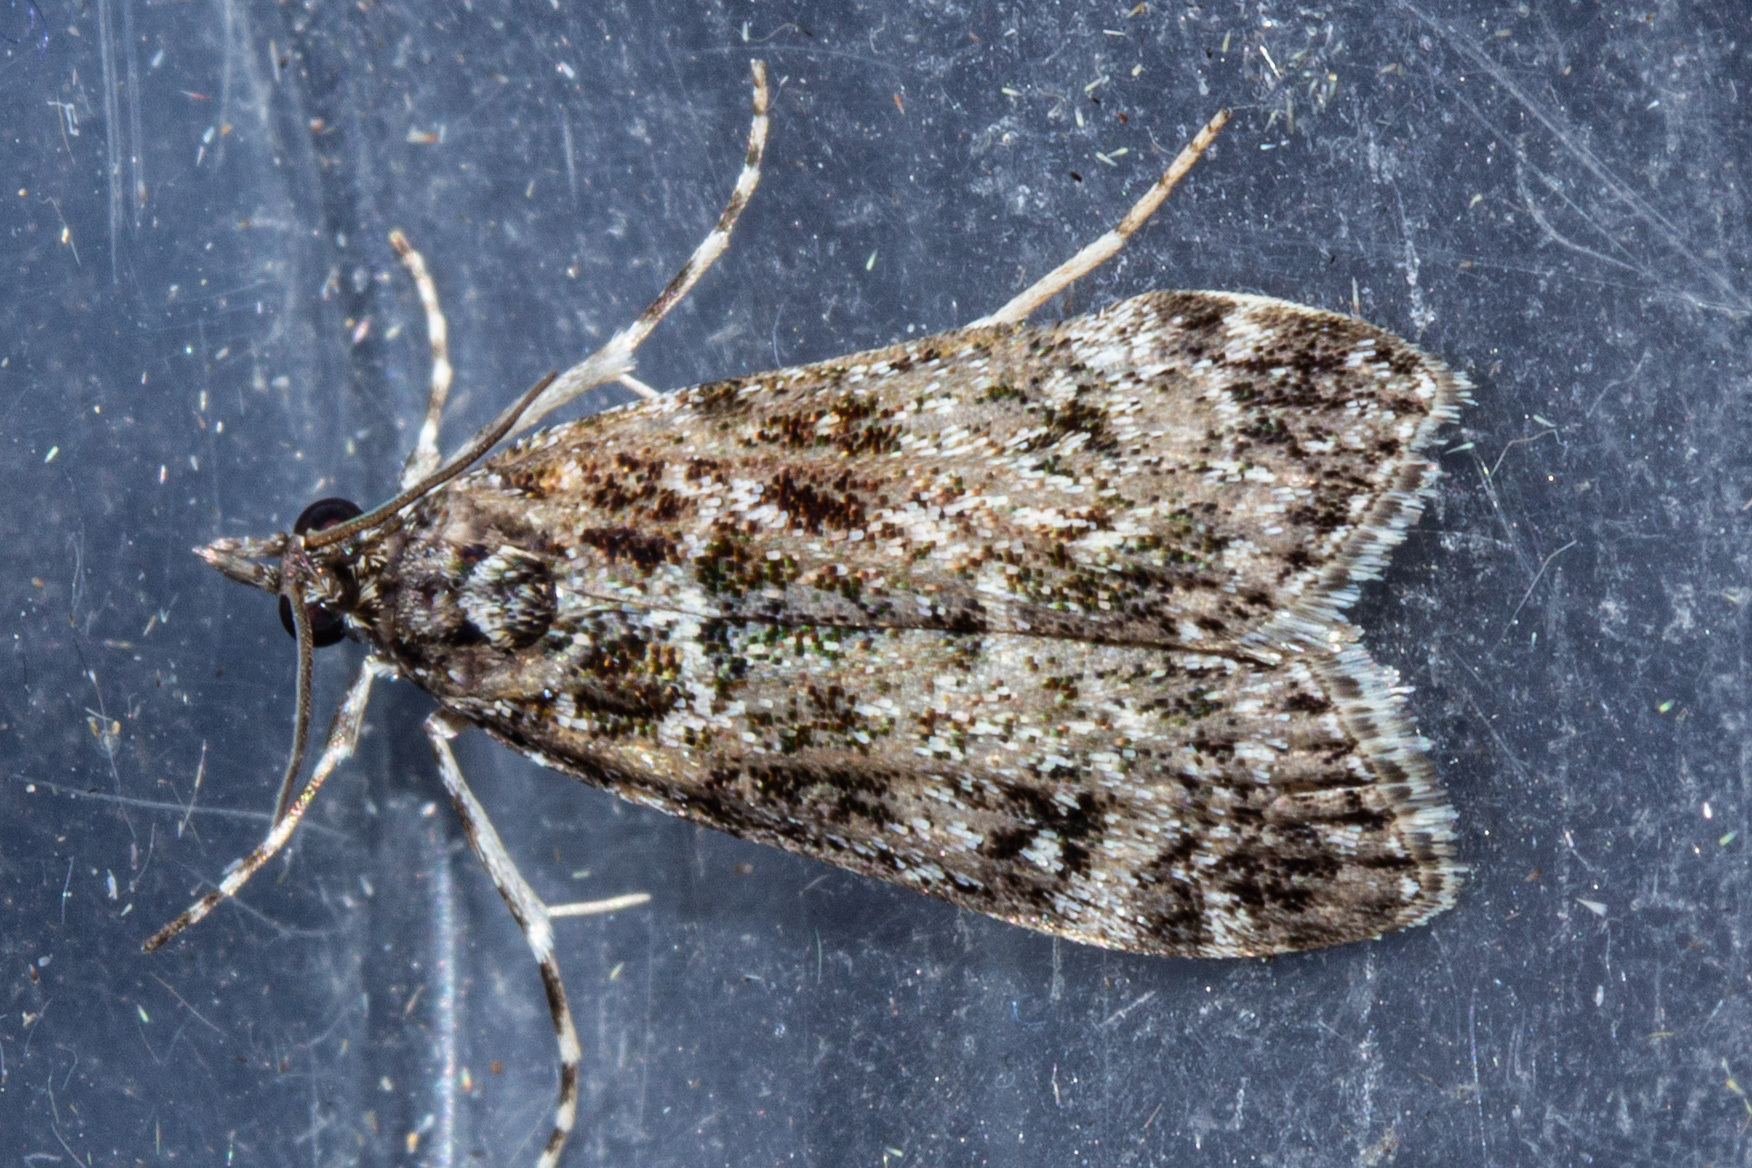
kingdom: Animalia
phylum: Arthropoda
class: Insecta
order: Lepidoptera
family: Crambidae
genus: Eudonia
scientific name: Eudonia philerga
